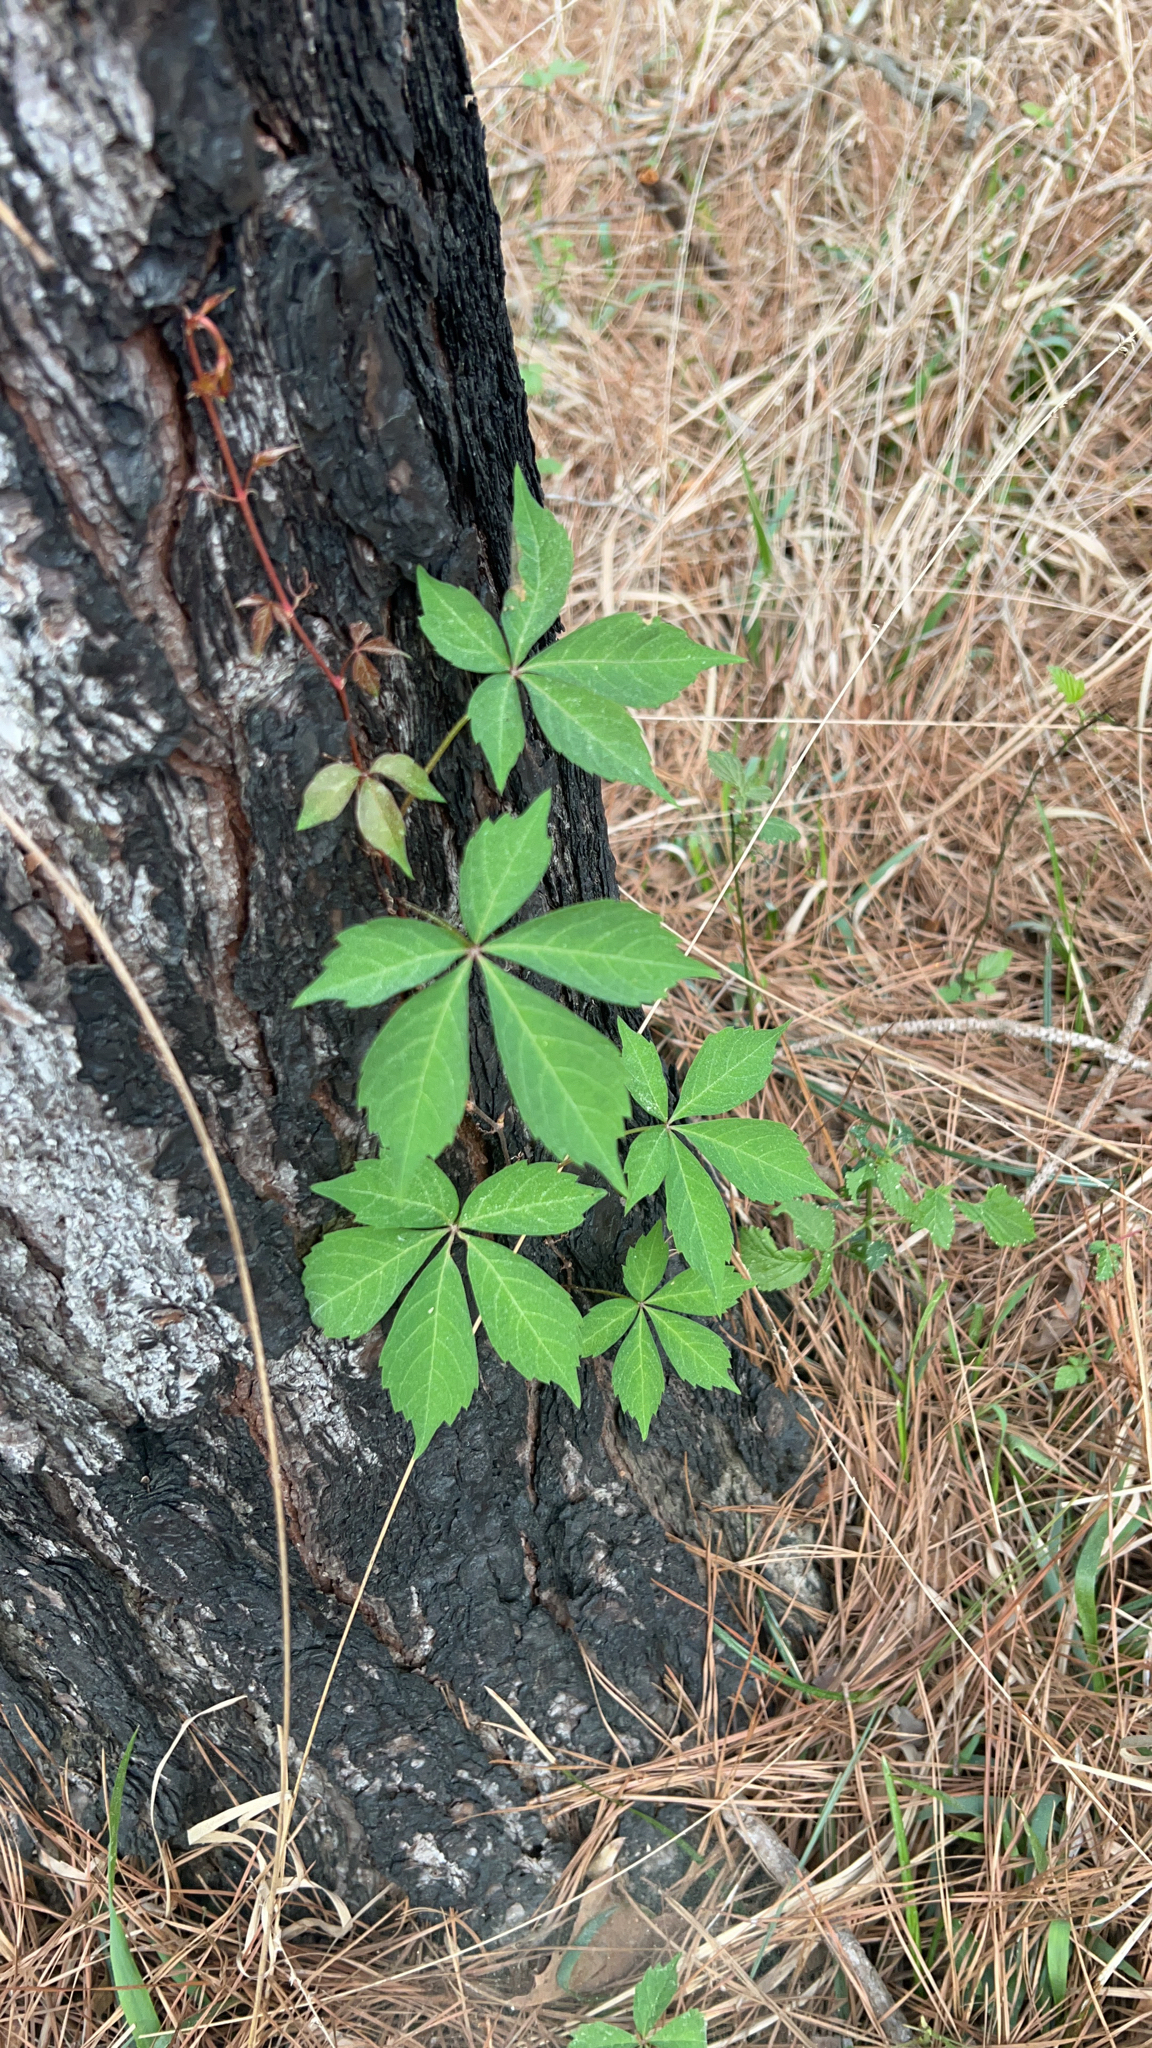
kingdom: Plantae
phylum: Tracheophyta
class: Magnoliopsida
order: Vitales
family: Vitaceae
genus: Parthenocissus
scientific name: Parthenocissus quinquefolia
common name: Virginia-creeper
